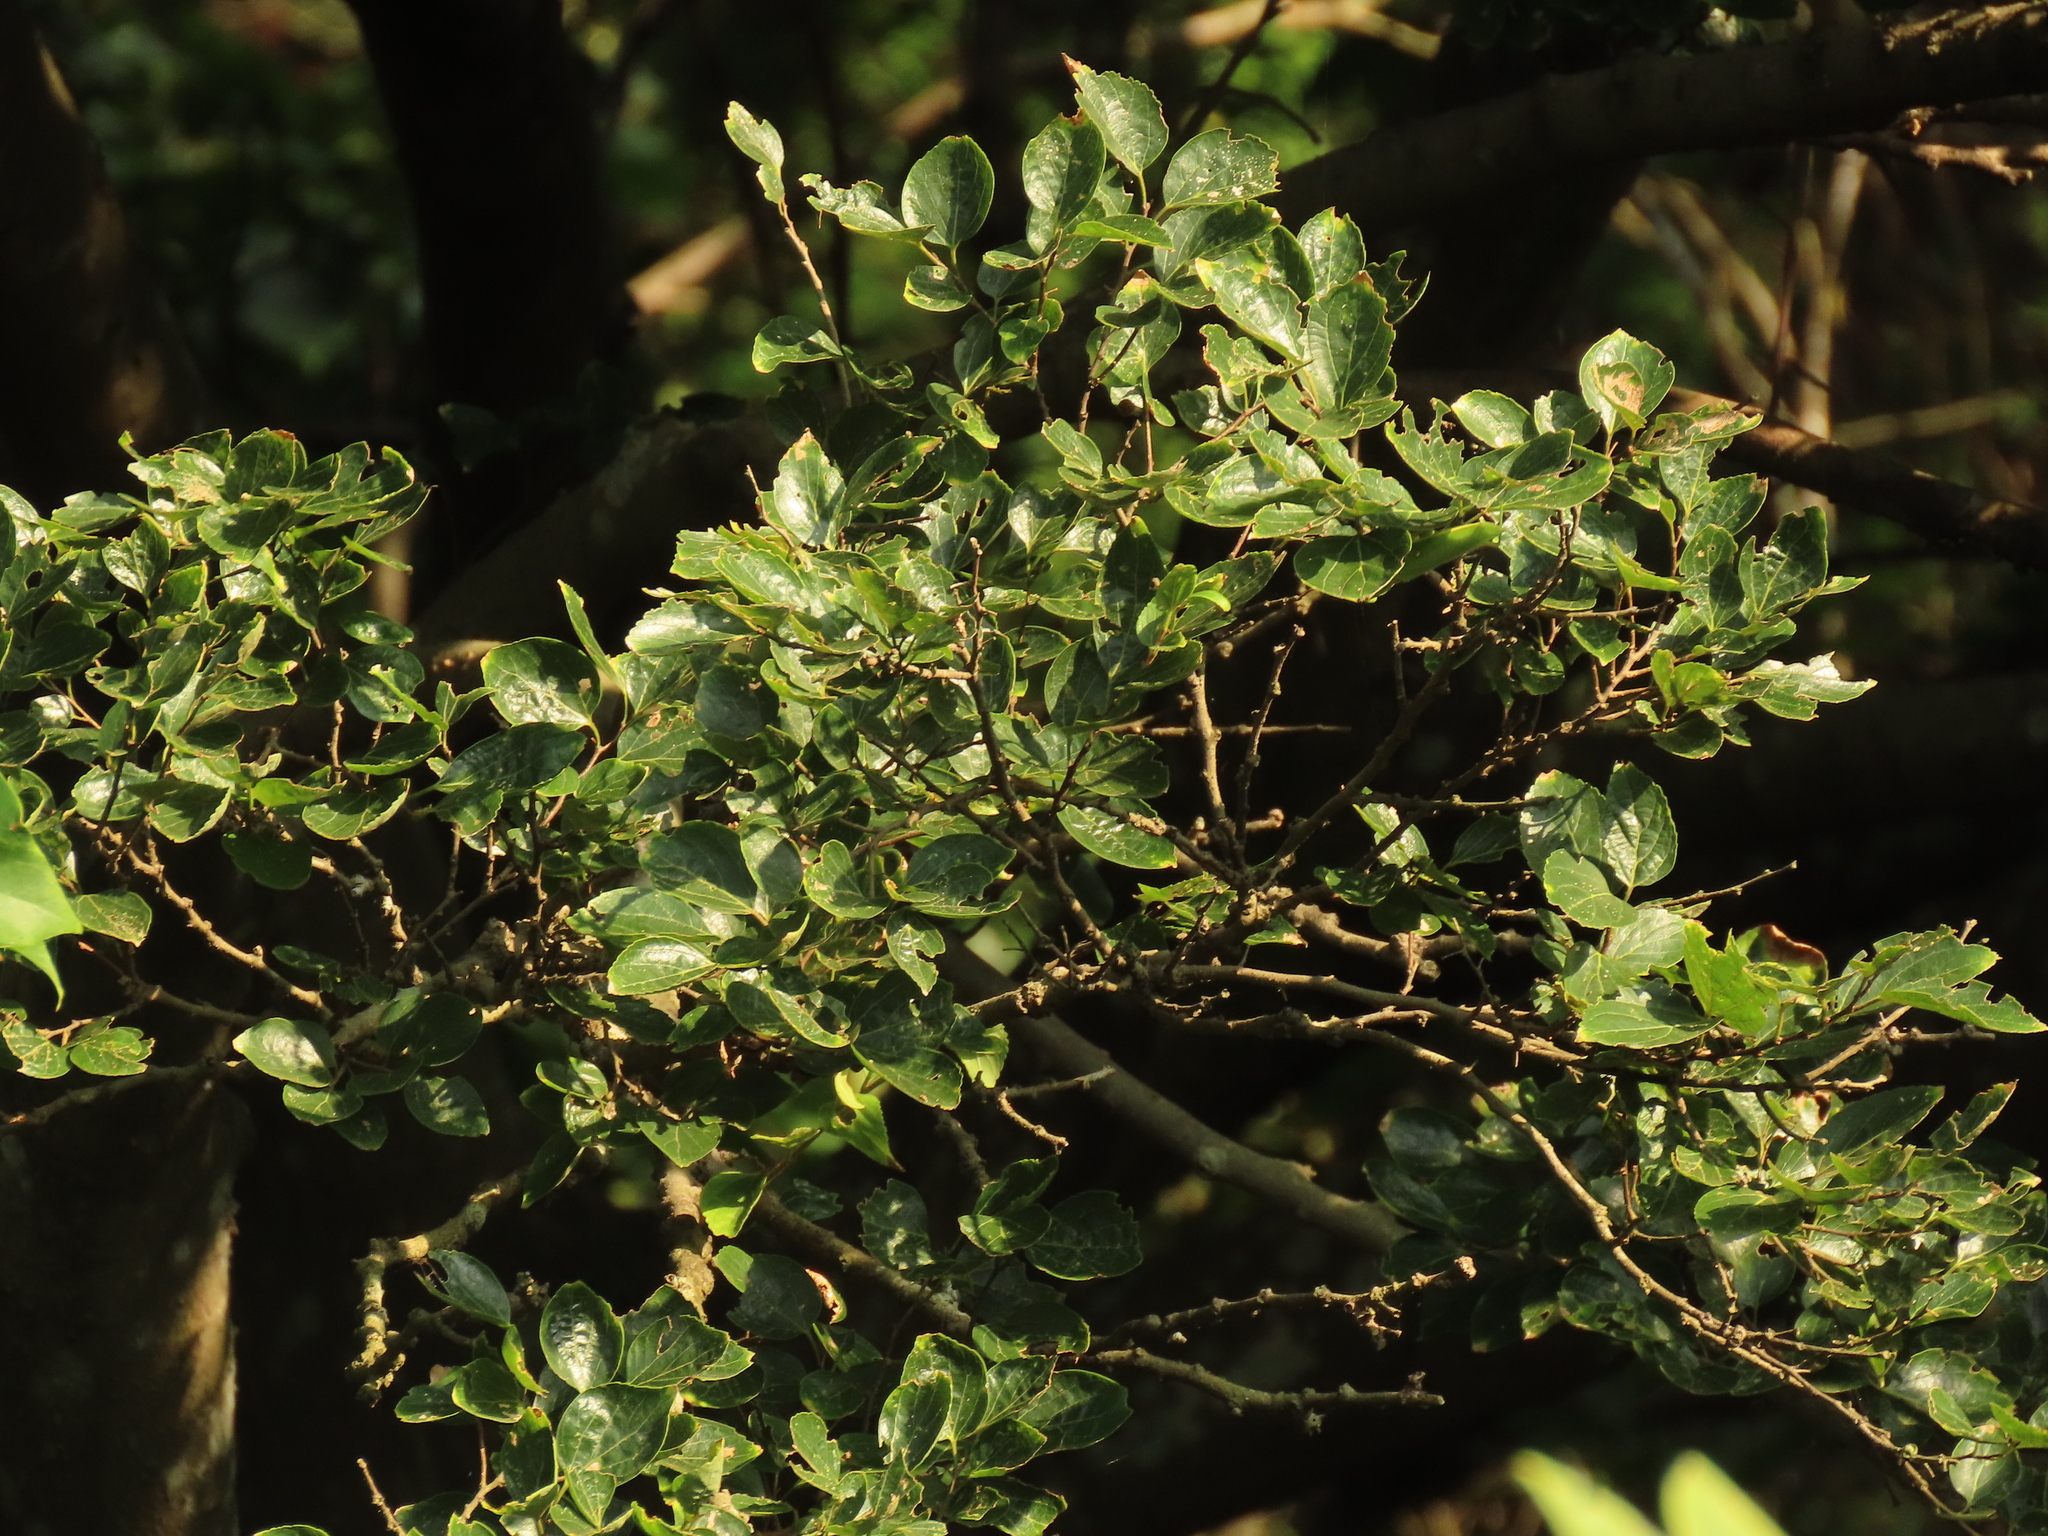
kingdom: Plantae
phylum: Tracheophyta
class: Magnoliopsida
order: Rosales
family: Cannabaceae
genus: Celtis
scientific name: Celtis sinensis
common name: Chinese hackberry
